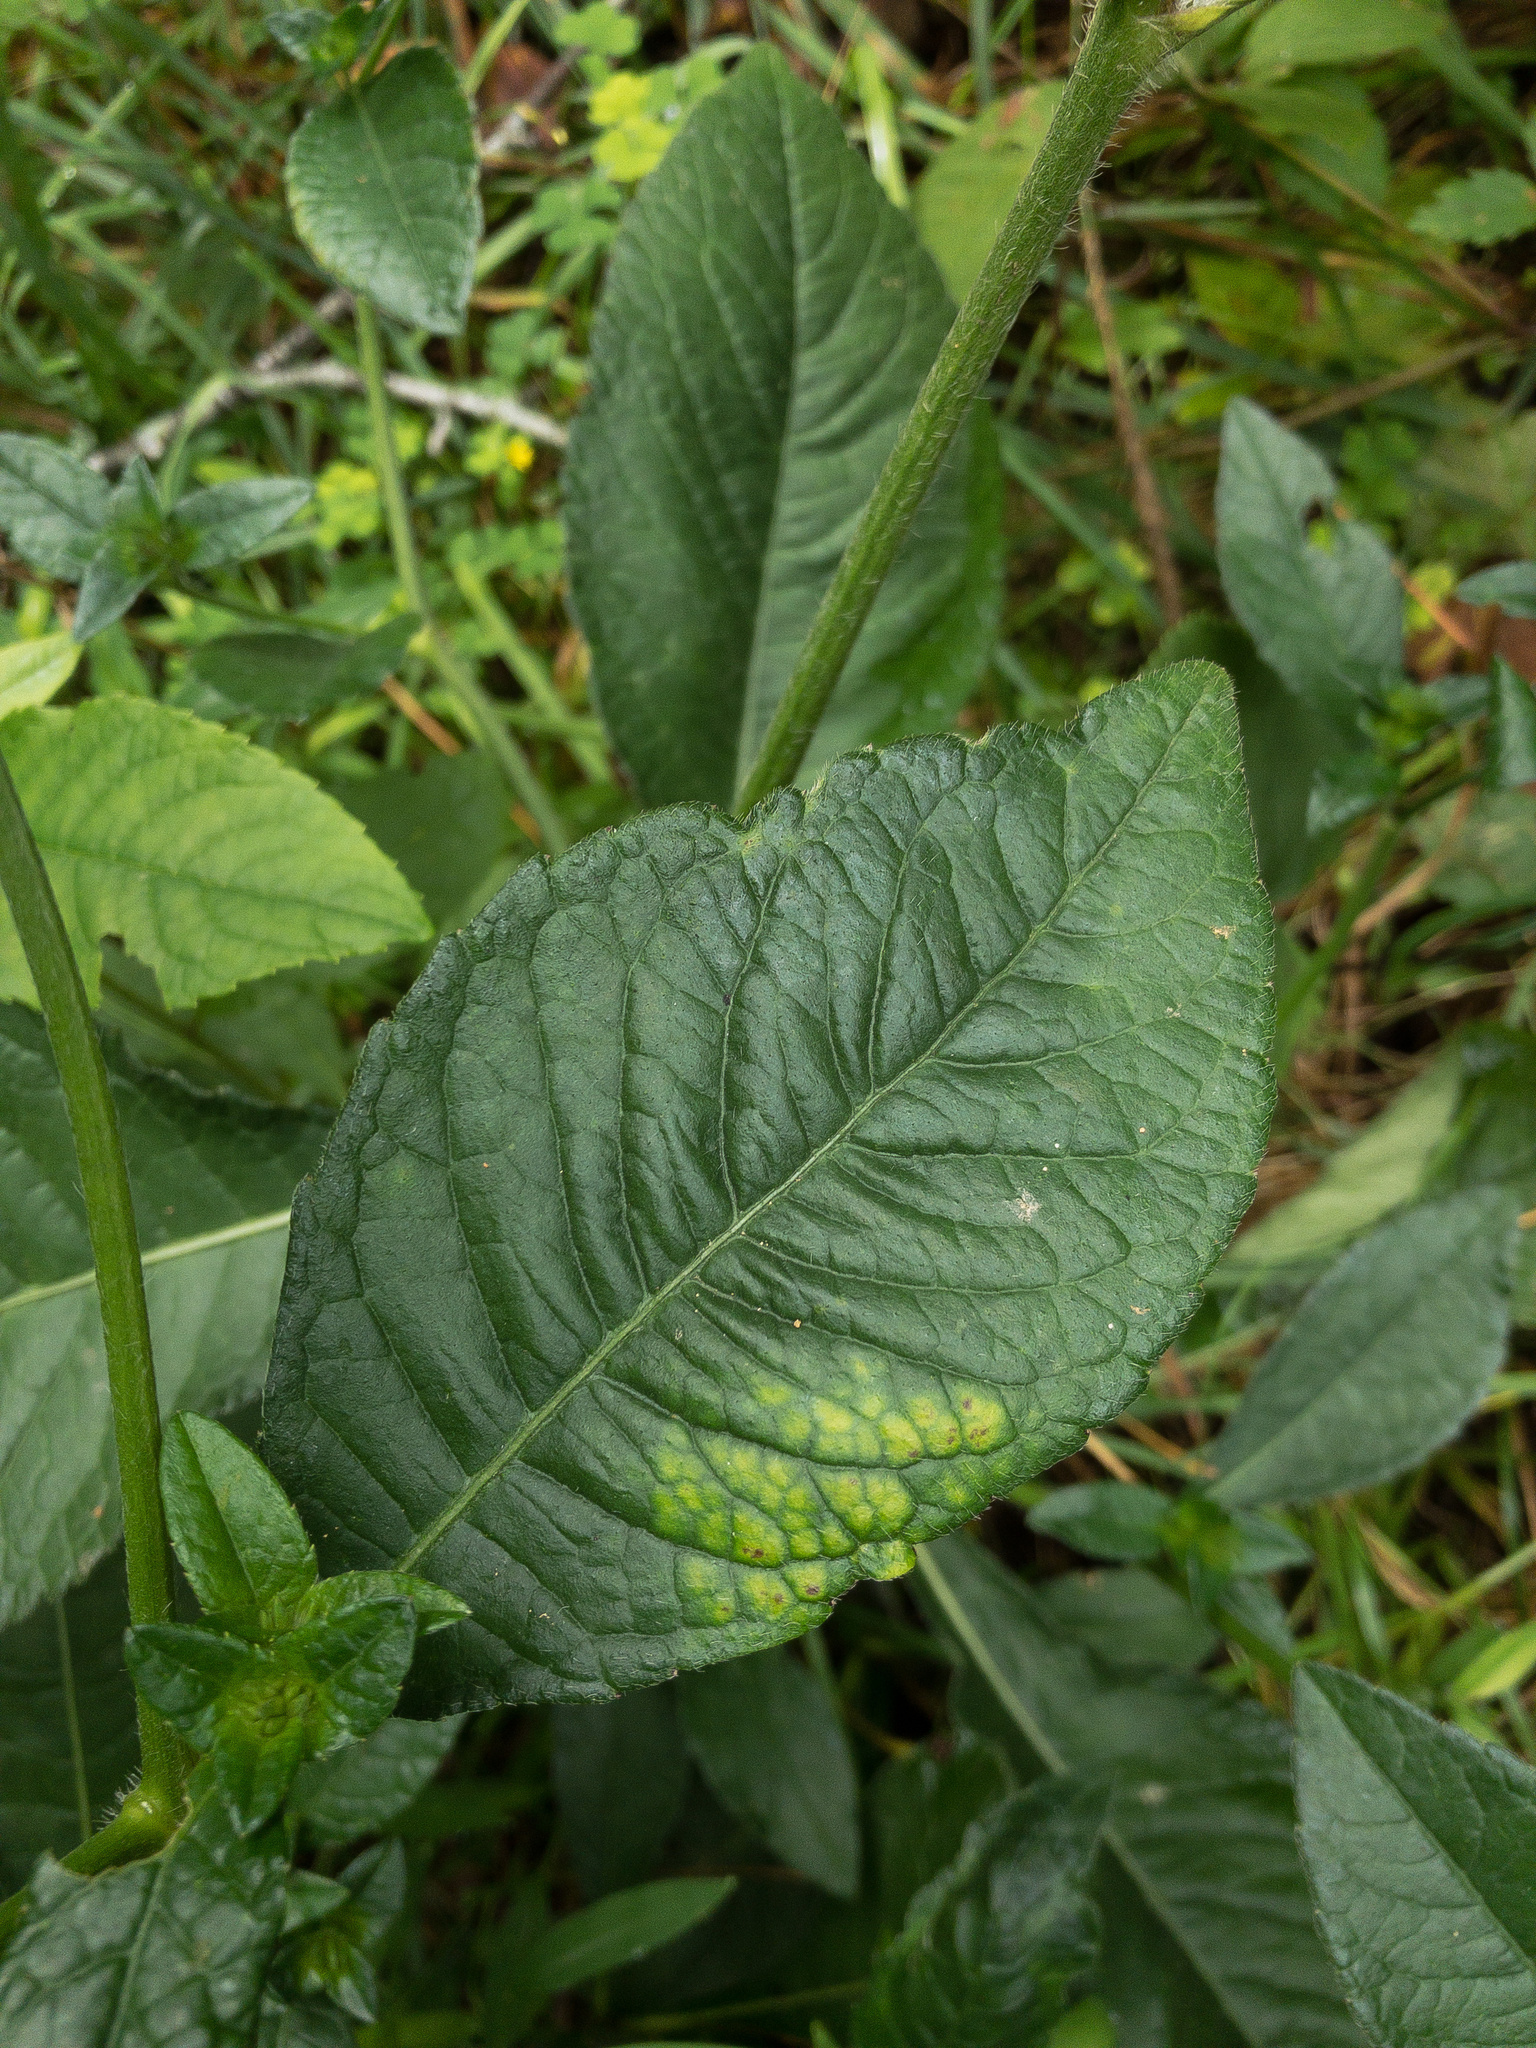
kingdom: Plantae
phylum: Tracheophyta
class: Magnoliopsida
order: Asterales
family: Asteraceae
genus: Elephantopus
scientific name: Elephantopus carolinianus
